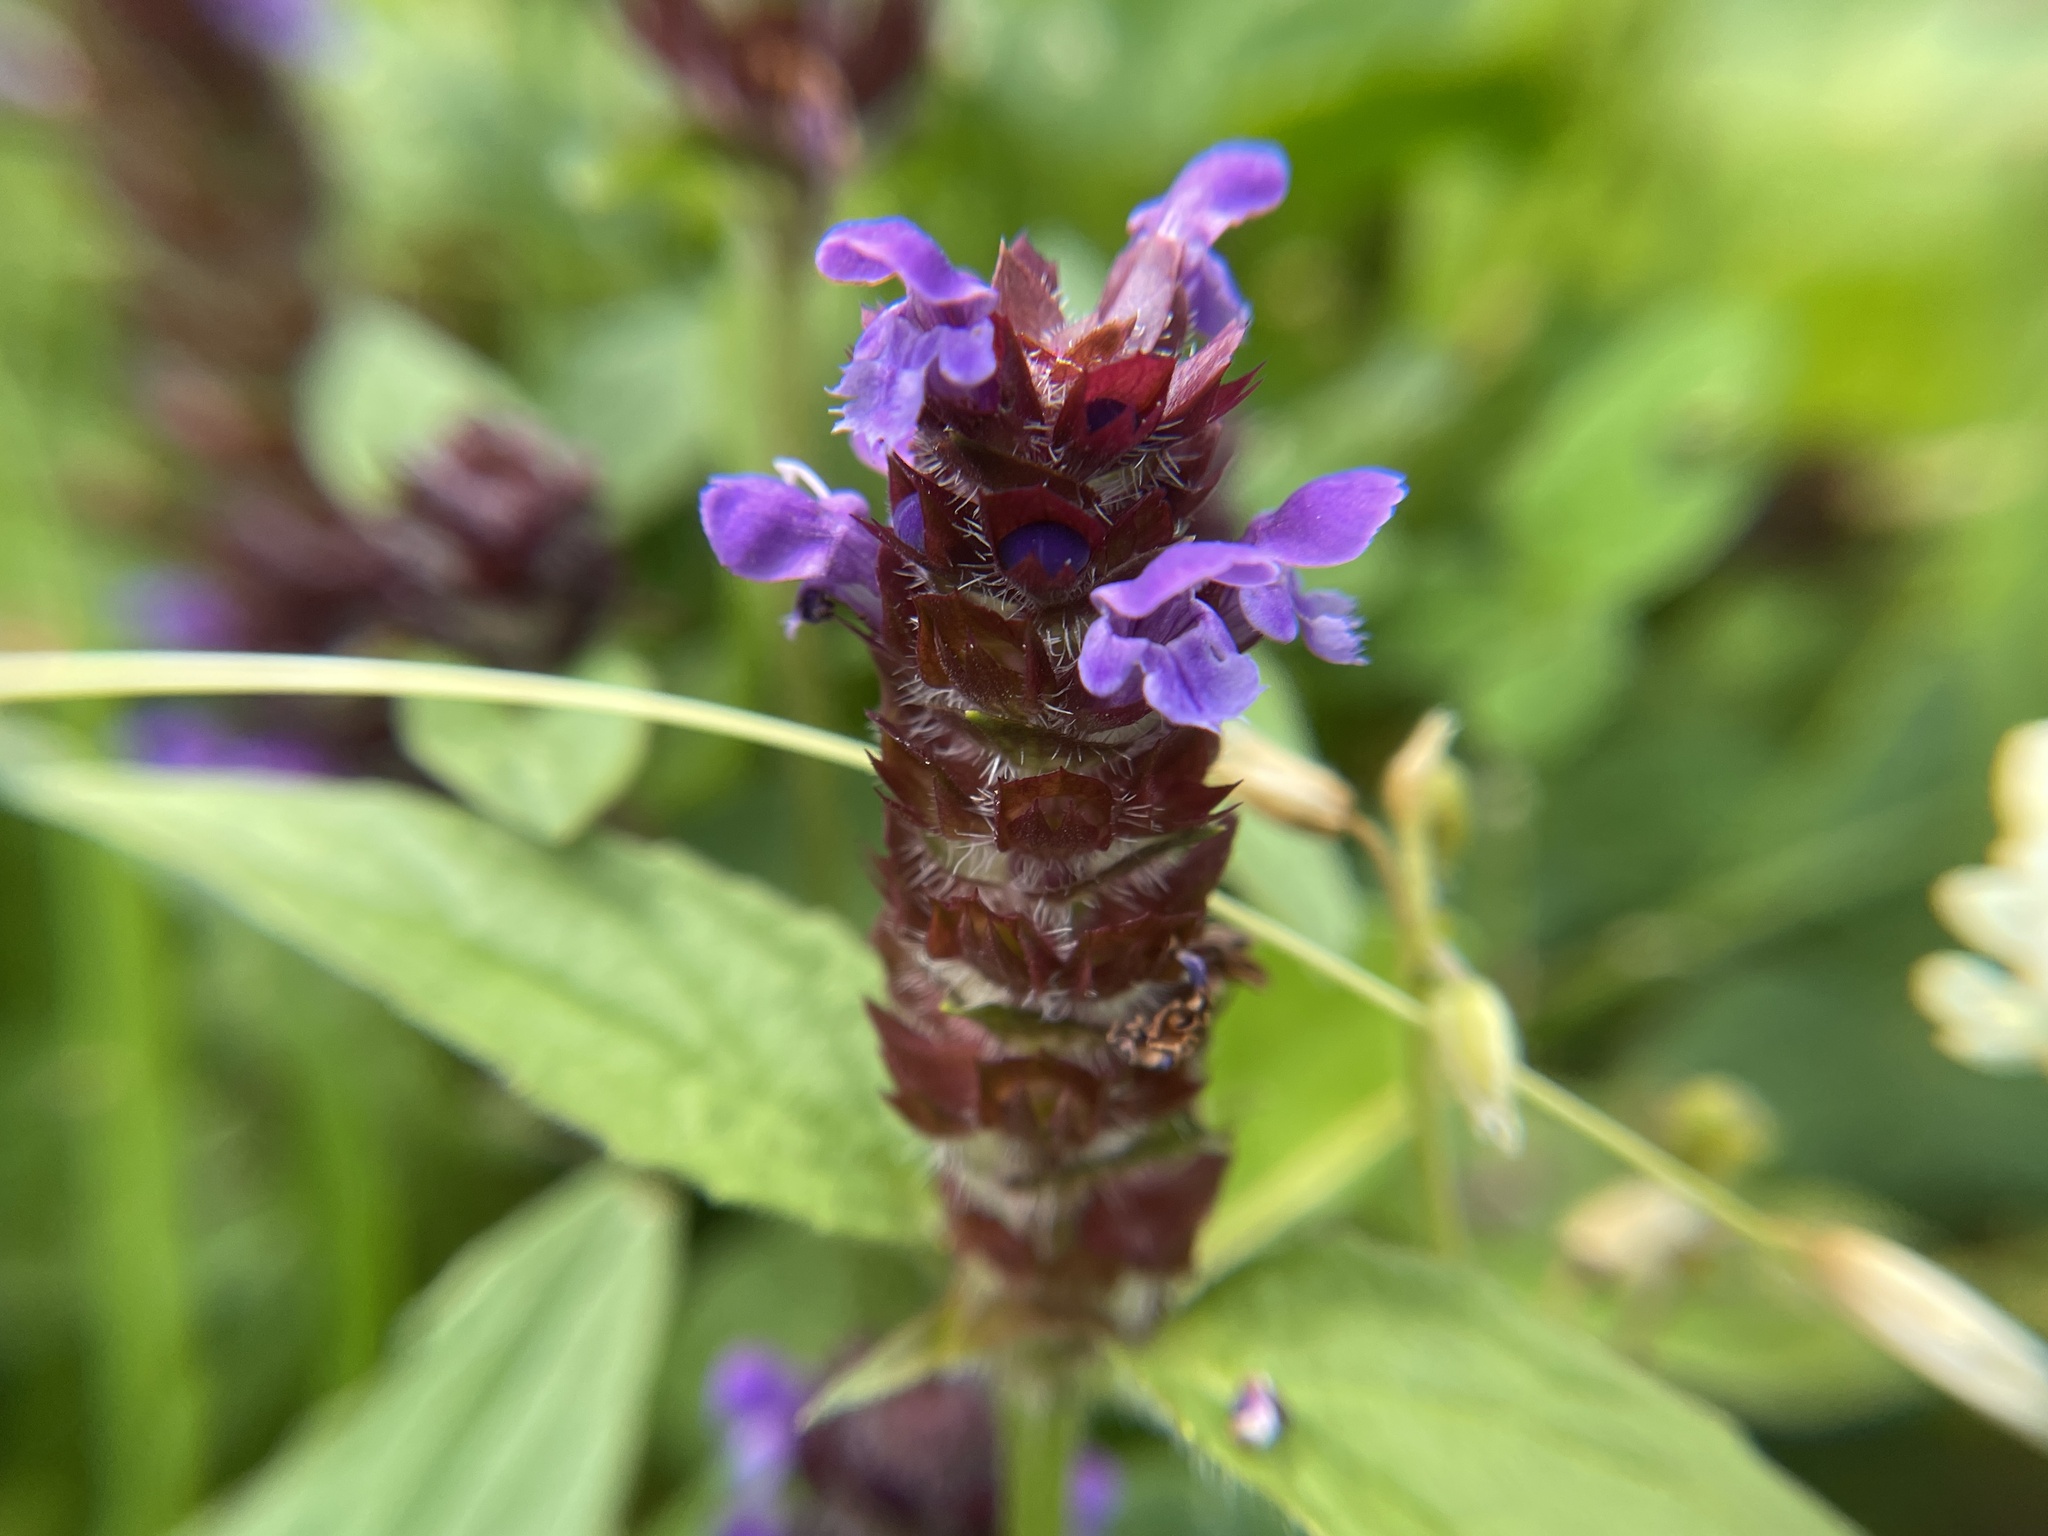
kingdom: Plantae
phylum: Tracheophyta
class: Magnoliopsida
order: Lamiales
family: Lamiaceae
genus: Prunella
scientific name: Prunella vulgaris
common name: Heal-all
